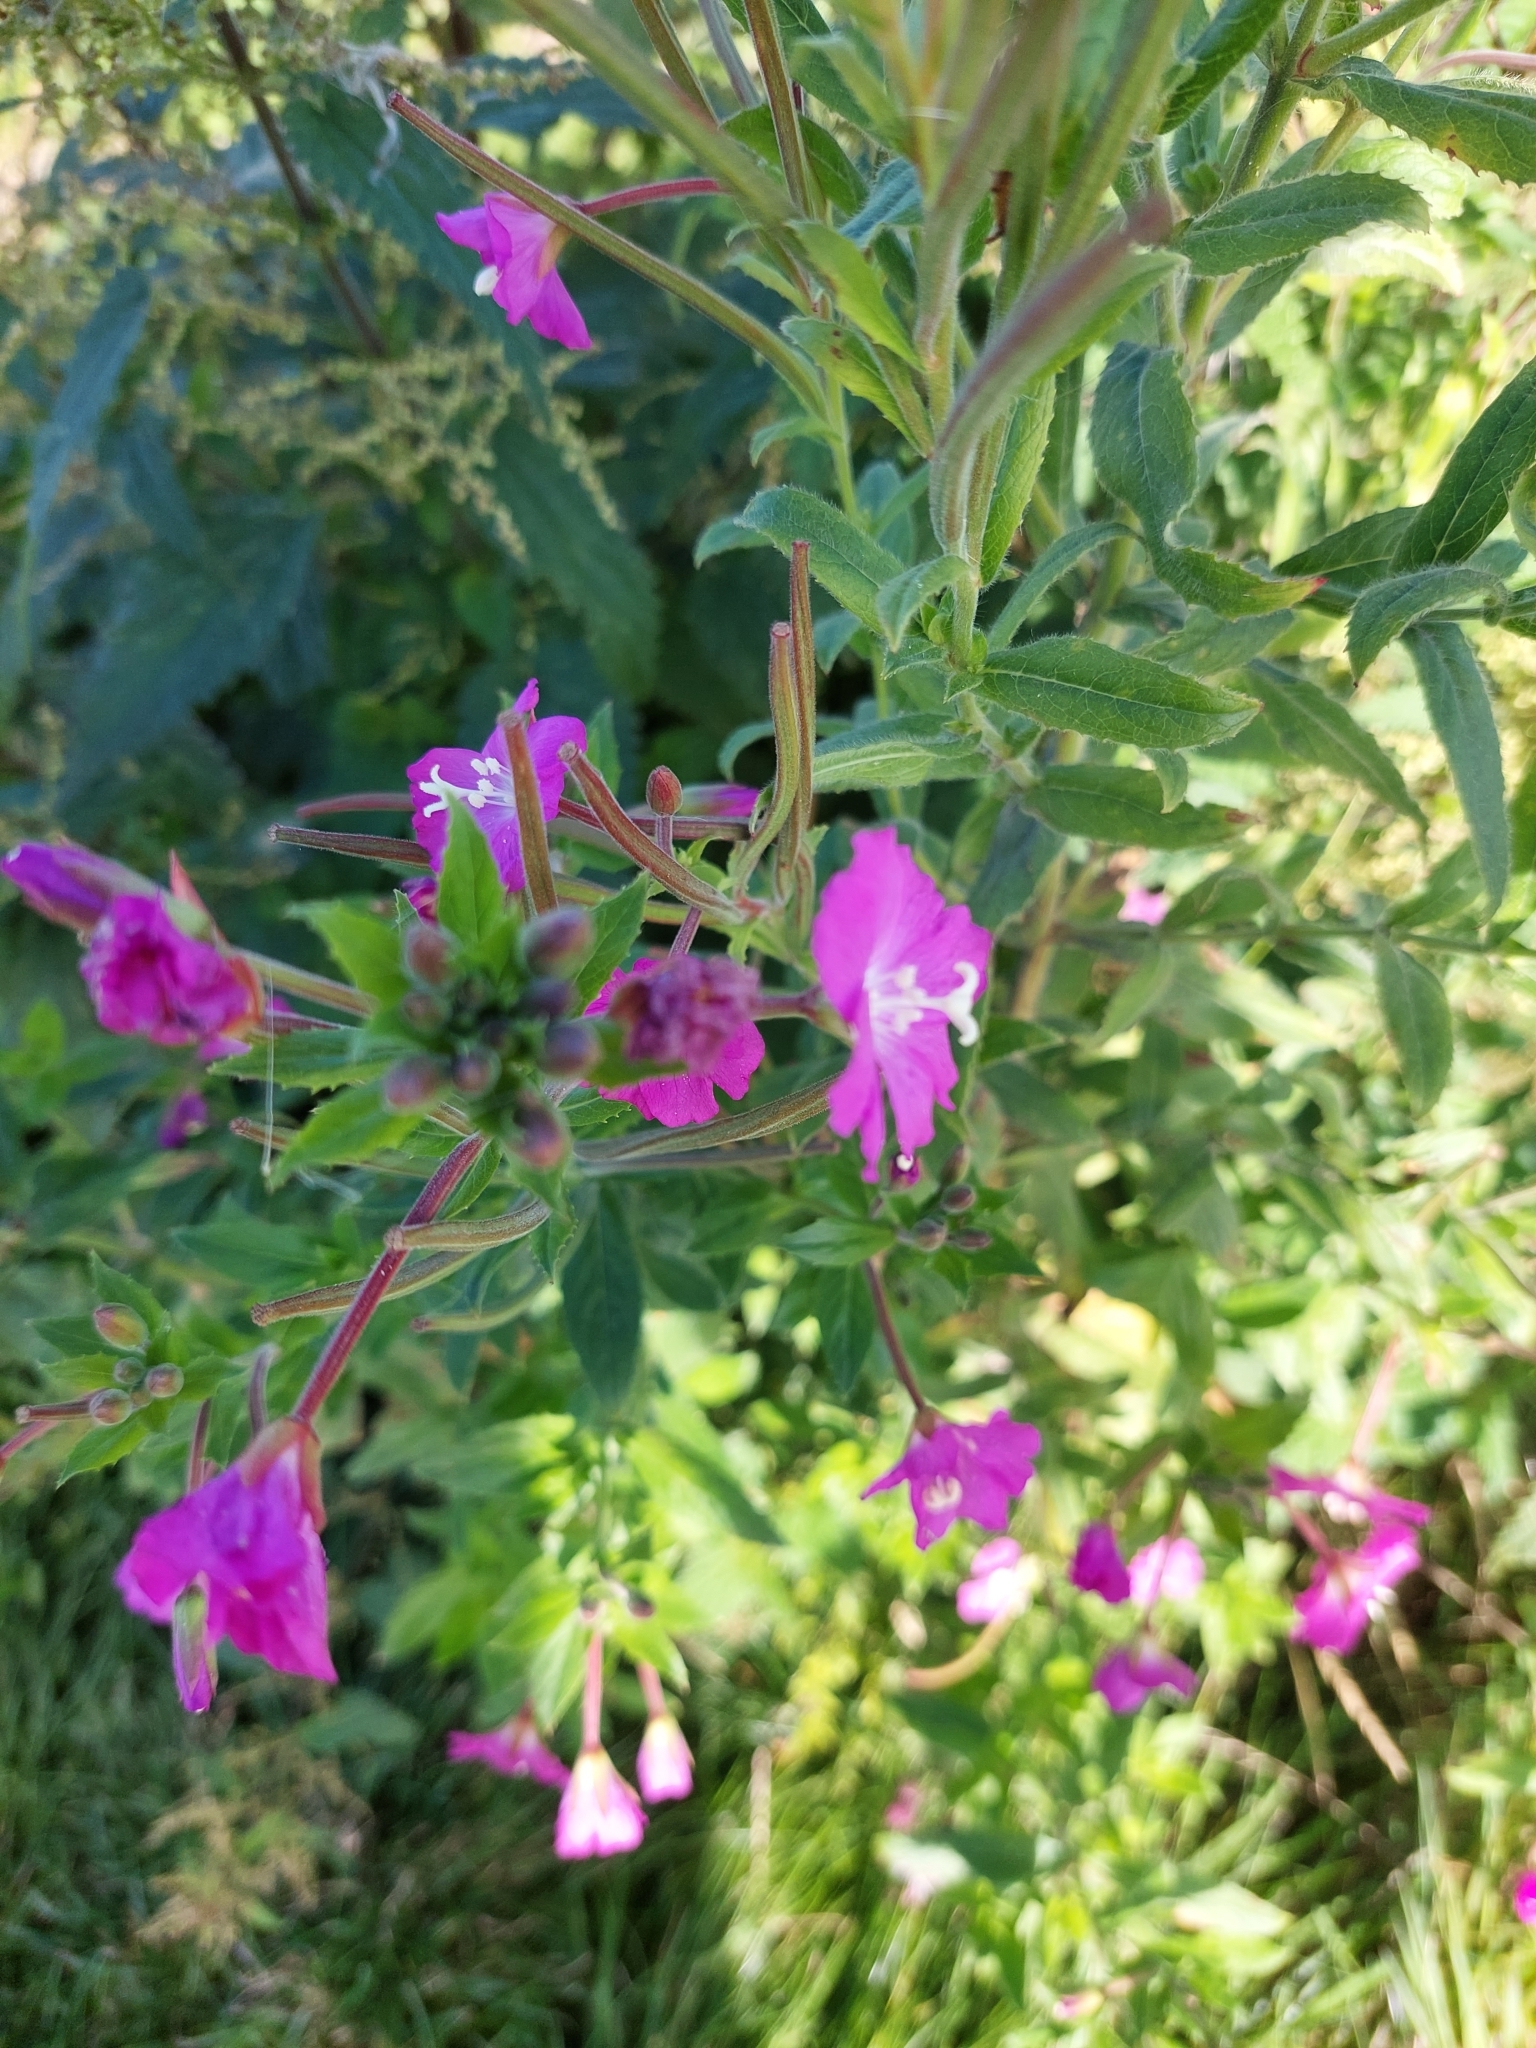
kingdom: Plantae
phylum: Tracheophyta
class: Magnoliopsida
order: Myrtales
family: Onagraceae
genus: Epilobium
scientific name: Epilobium hirsutum
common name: Great willowherb
